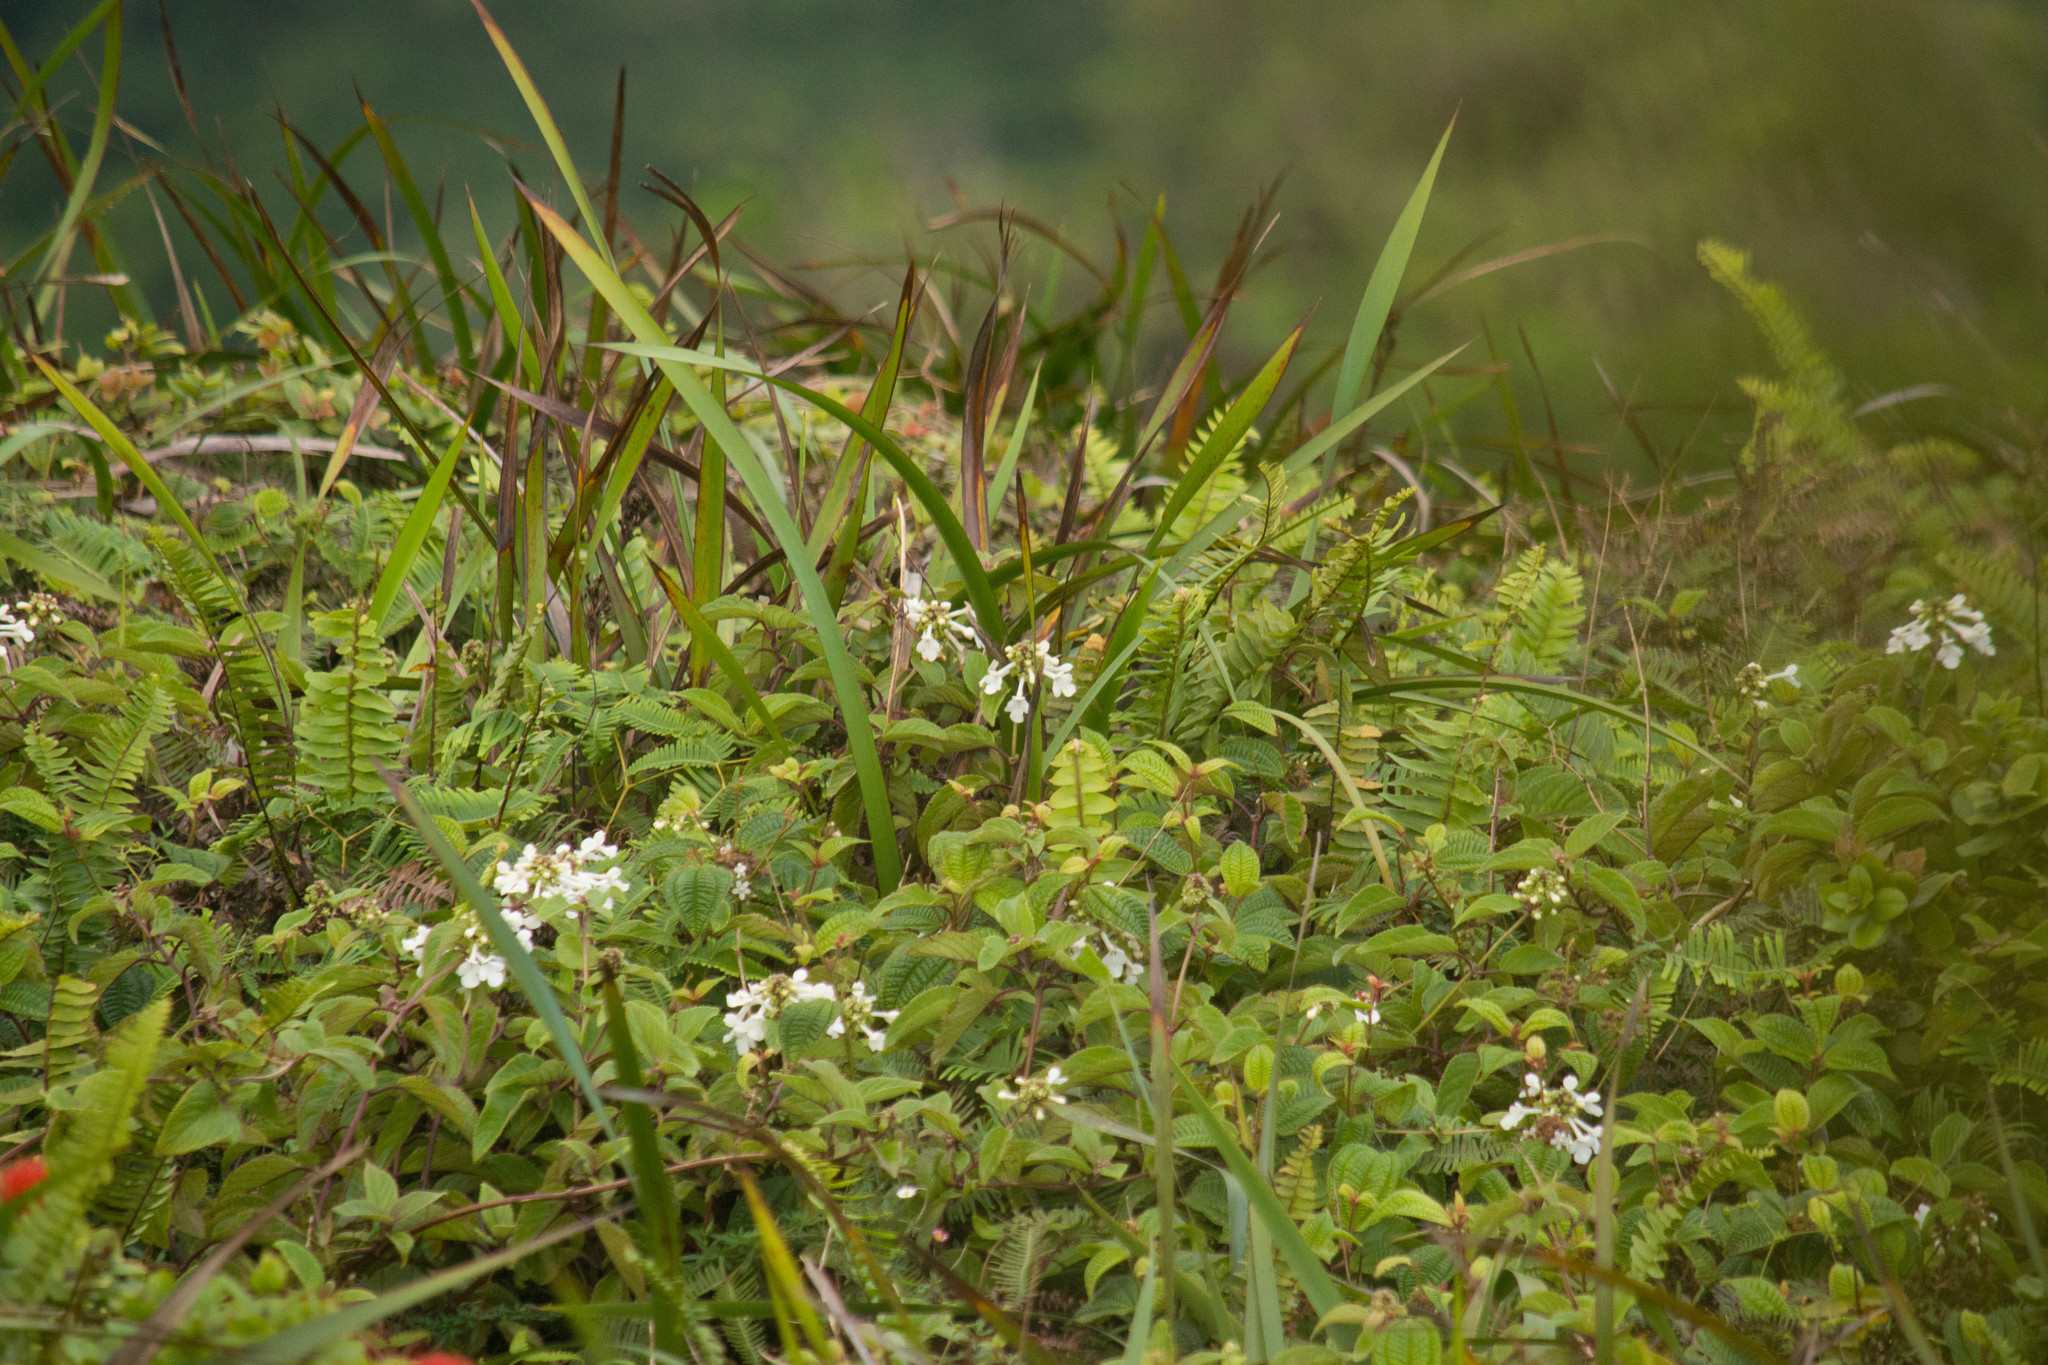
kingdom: Plantae
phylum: Tracheophyta
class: Magnoliopsida
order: Lamiales
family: Lamiaceae
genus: Phyllostegia
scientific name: Phyllostegia grandiflora
